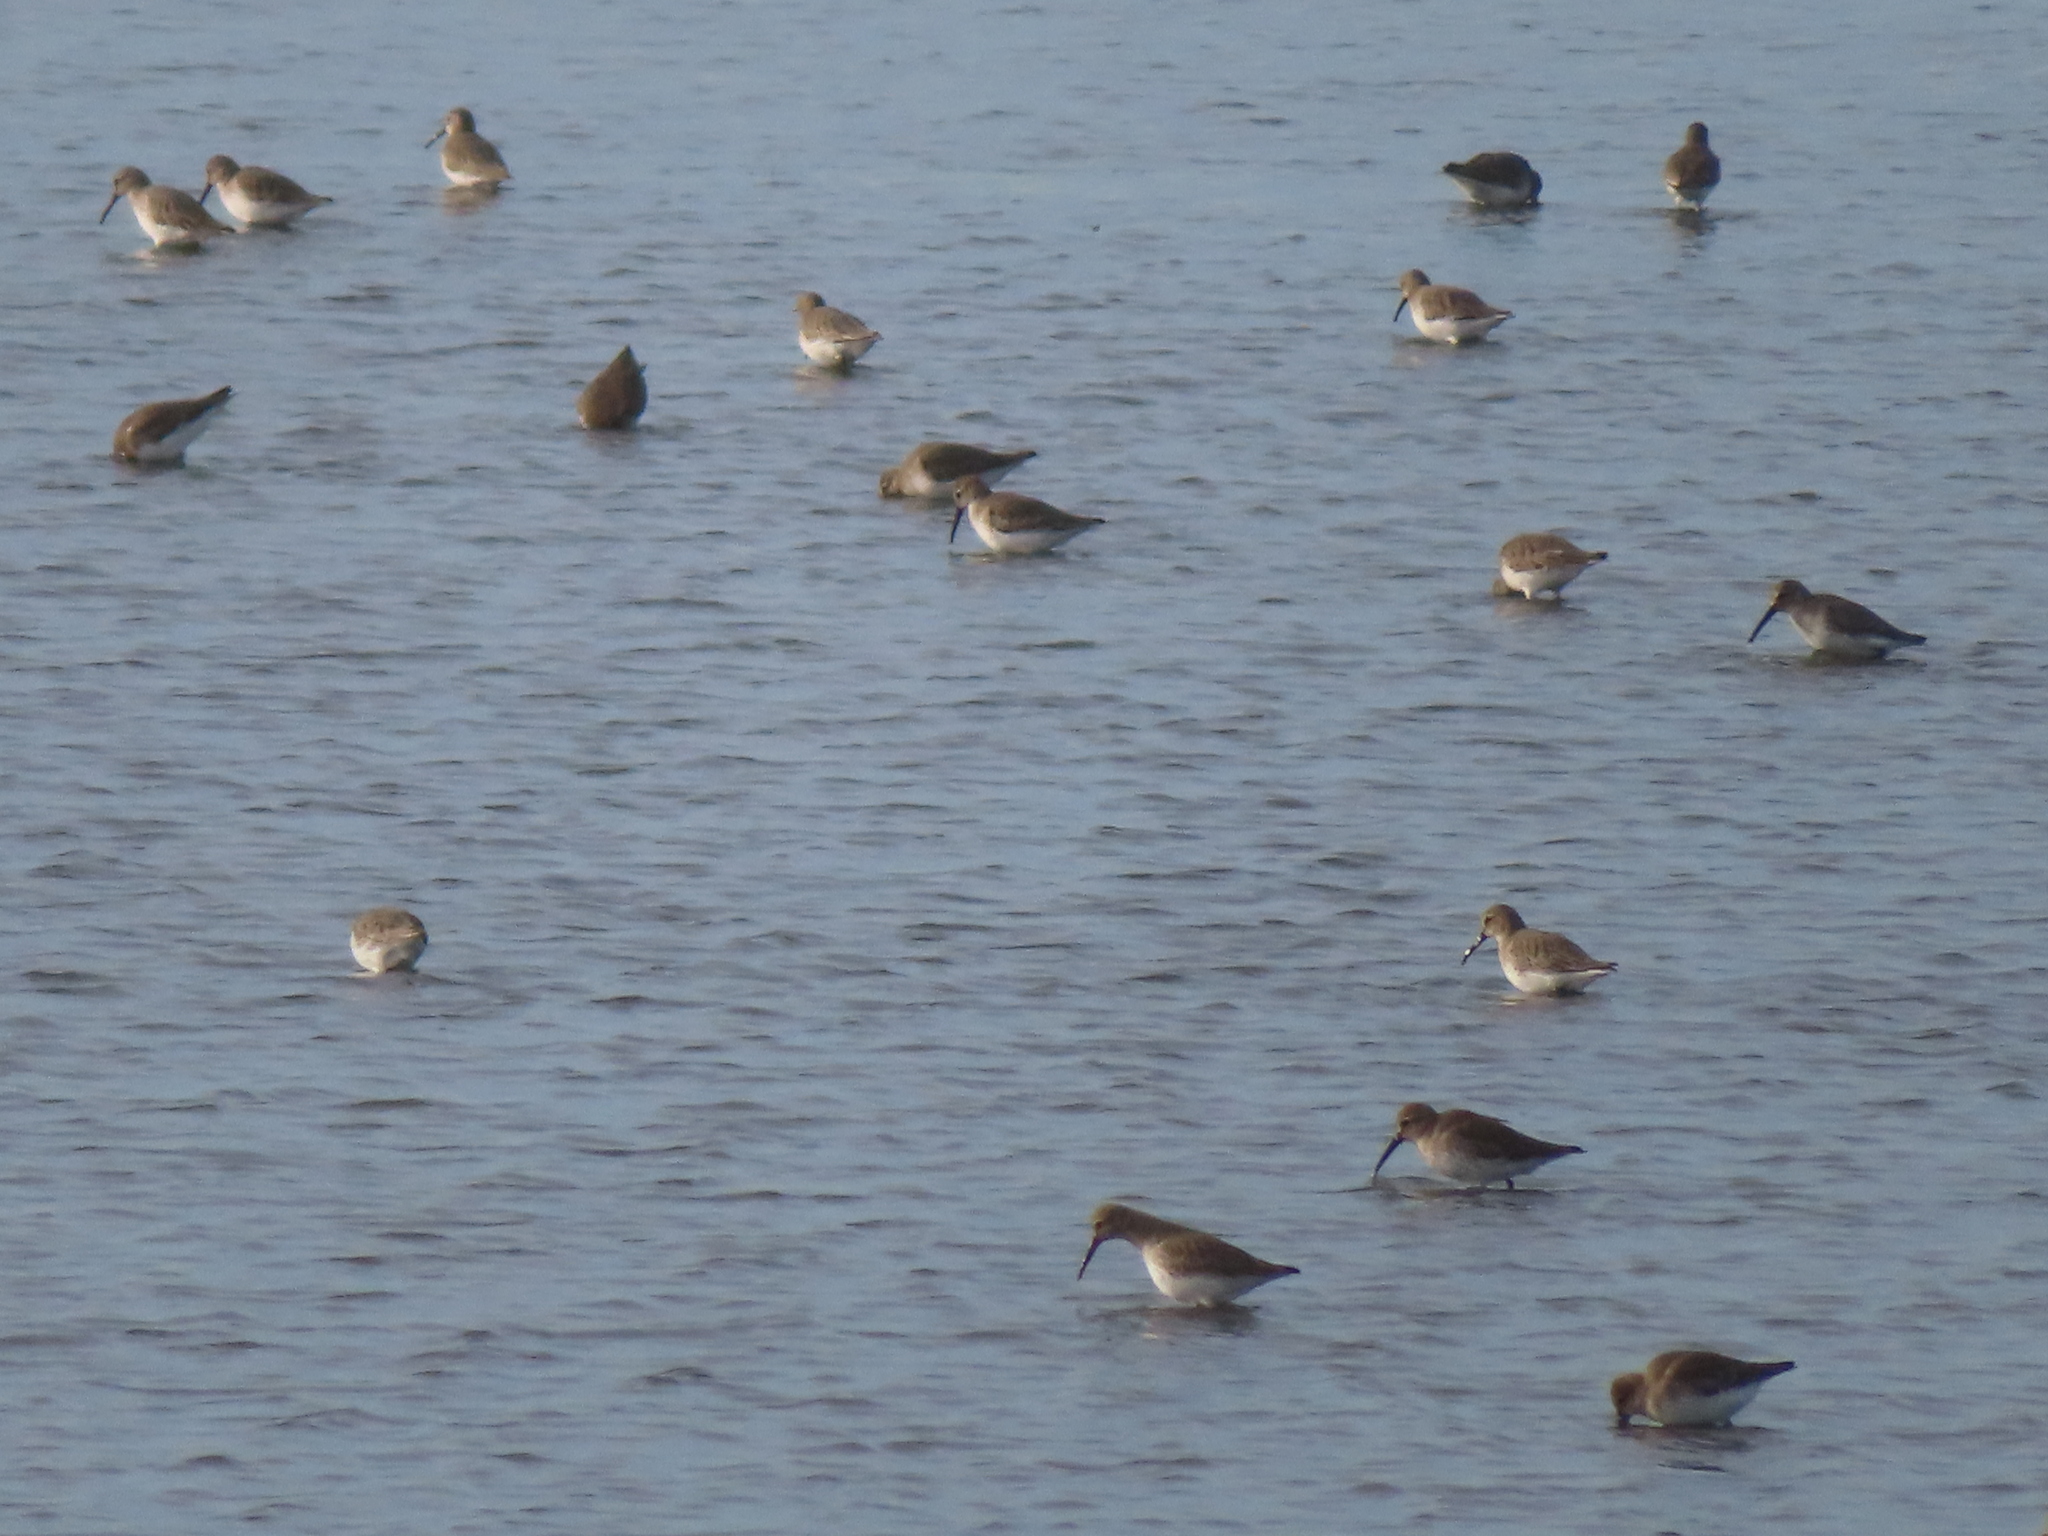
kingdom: Animalia
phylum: Chordata
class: Aves
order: Charadriiformes
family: Scolopacidae
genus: Calidris
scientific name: Calidris alpina
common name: Dunlin
